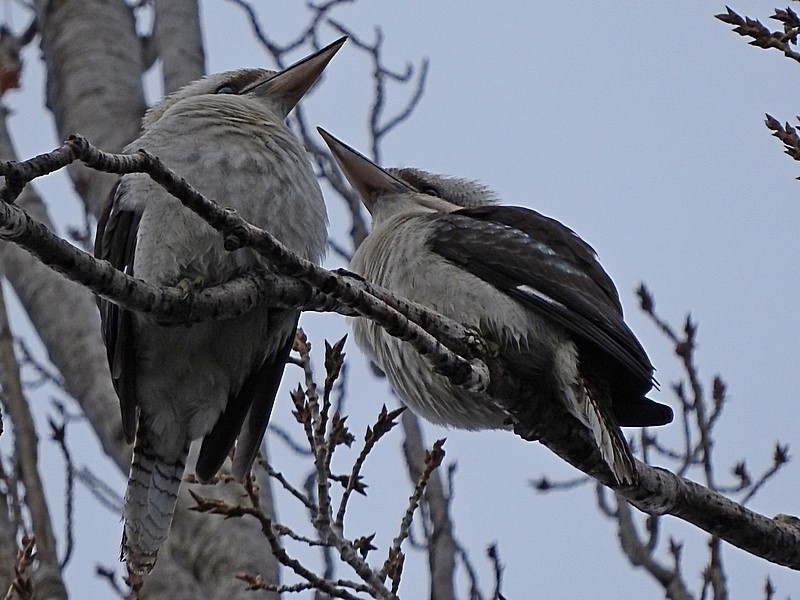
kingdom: Animalia
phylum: Chordata
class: Aves
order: Coraciiformes
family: Alcedinidae
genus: Dacelo
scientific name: Dacelo novaeguineae
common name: Laughing kookaburra
